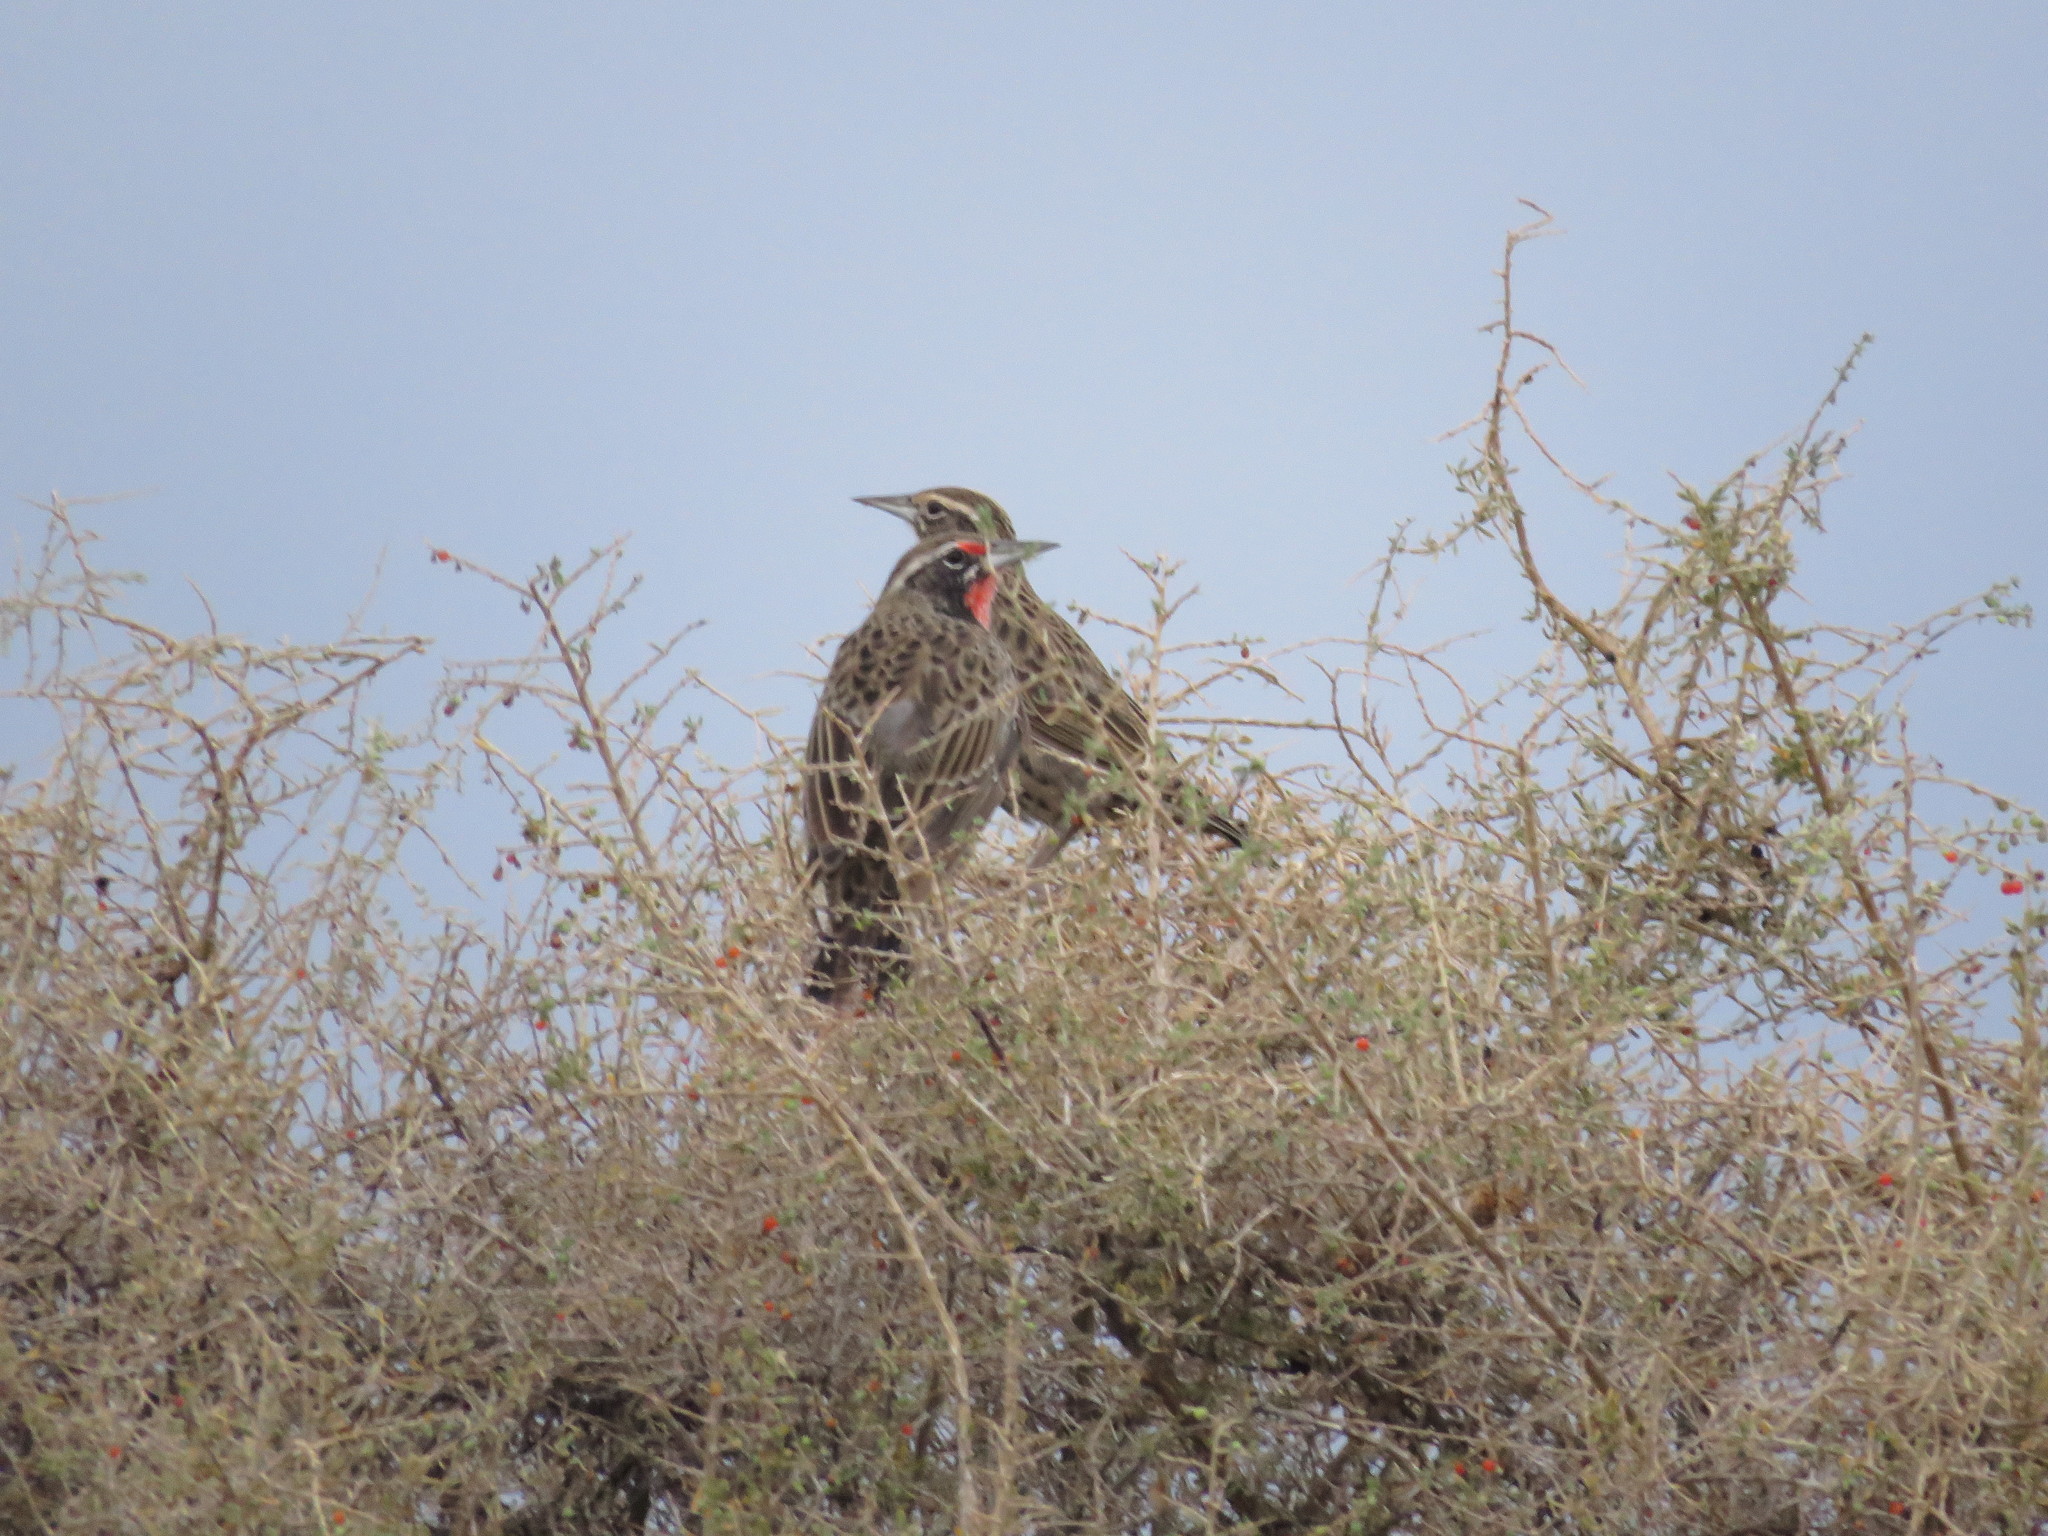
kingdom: Animalia
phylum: Chordata
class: Aves
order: Passeriformes
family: Icteridae
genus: Sturnella
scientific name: Sturnella loyca
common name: Long-tailed meadowlark
